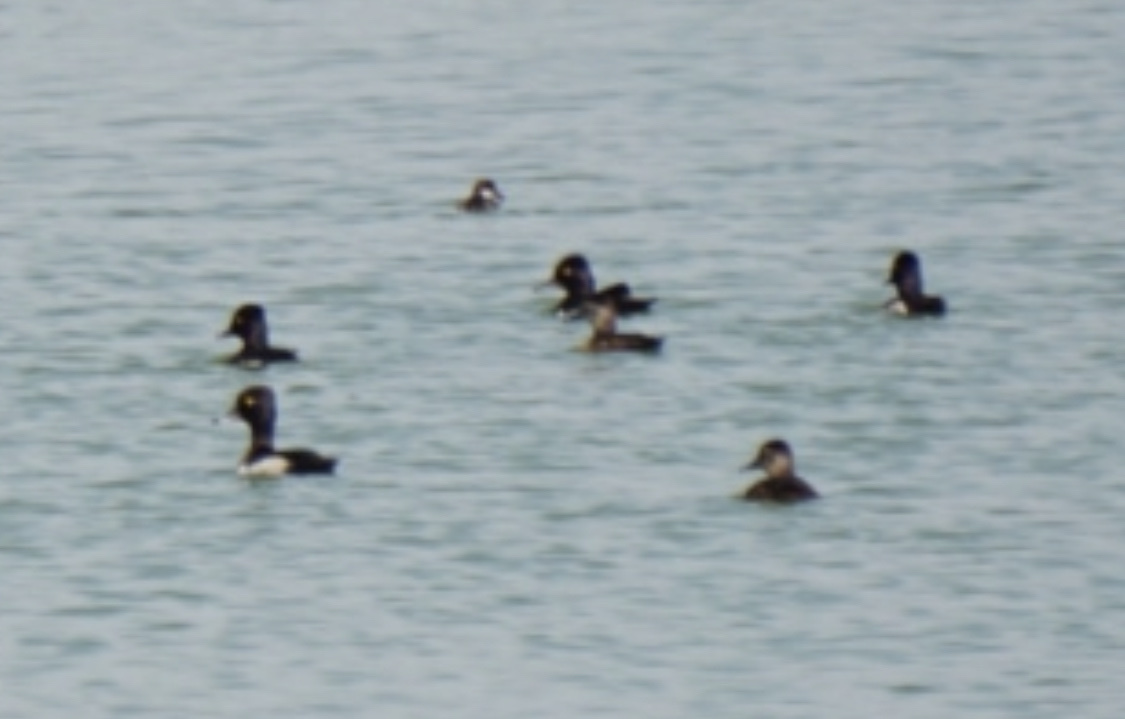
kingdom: Animalia
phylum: Chordata
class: Aves
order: Anseriformes
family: Anatidae
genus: Aythya
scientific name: Aythya collaris
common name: Ring-necked duck
